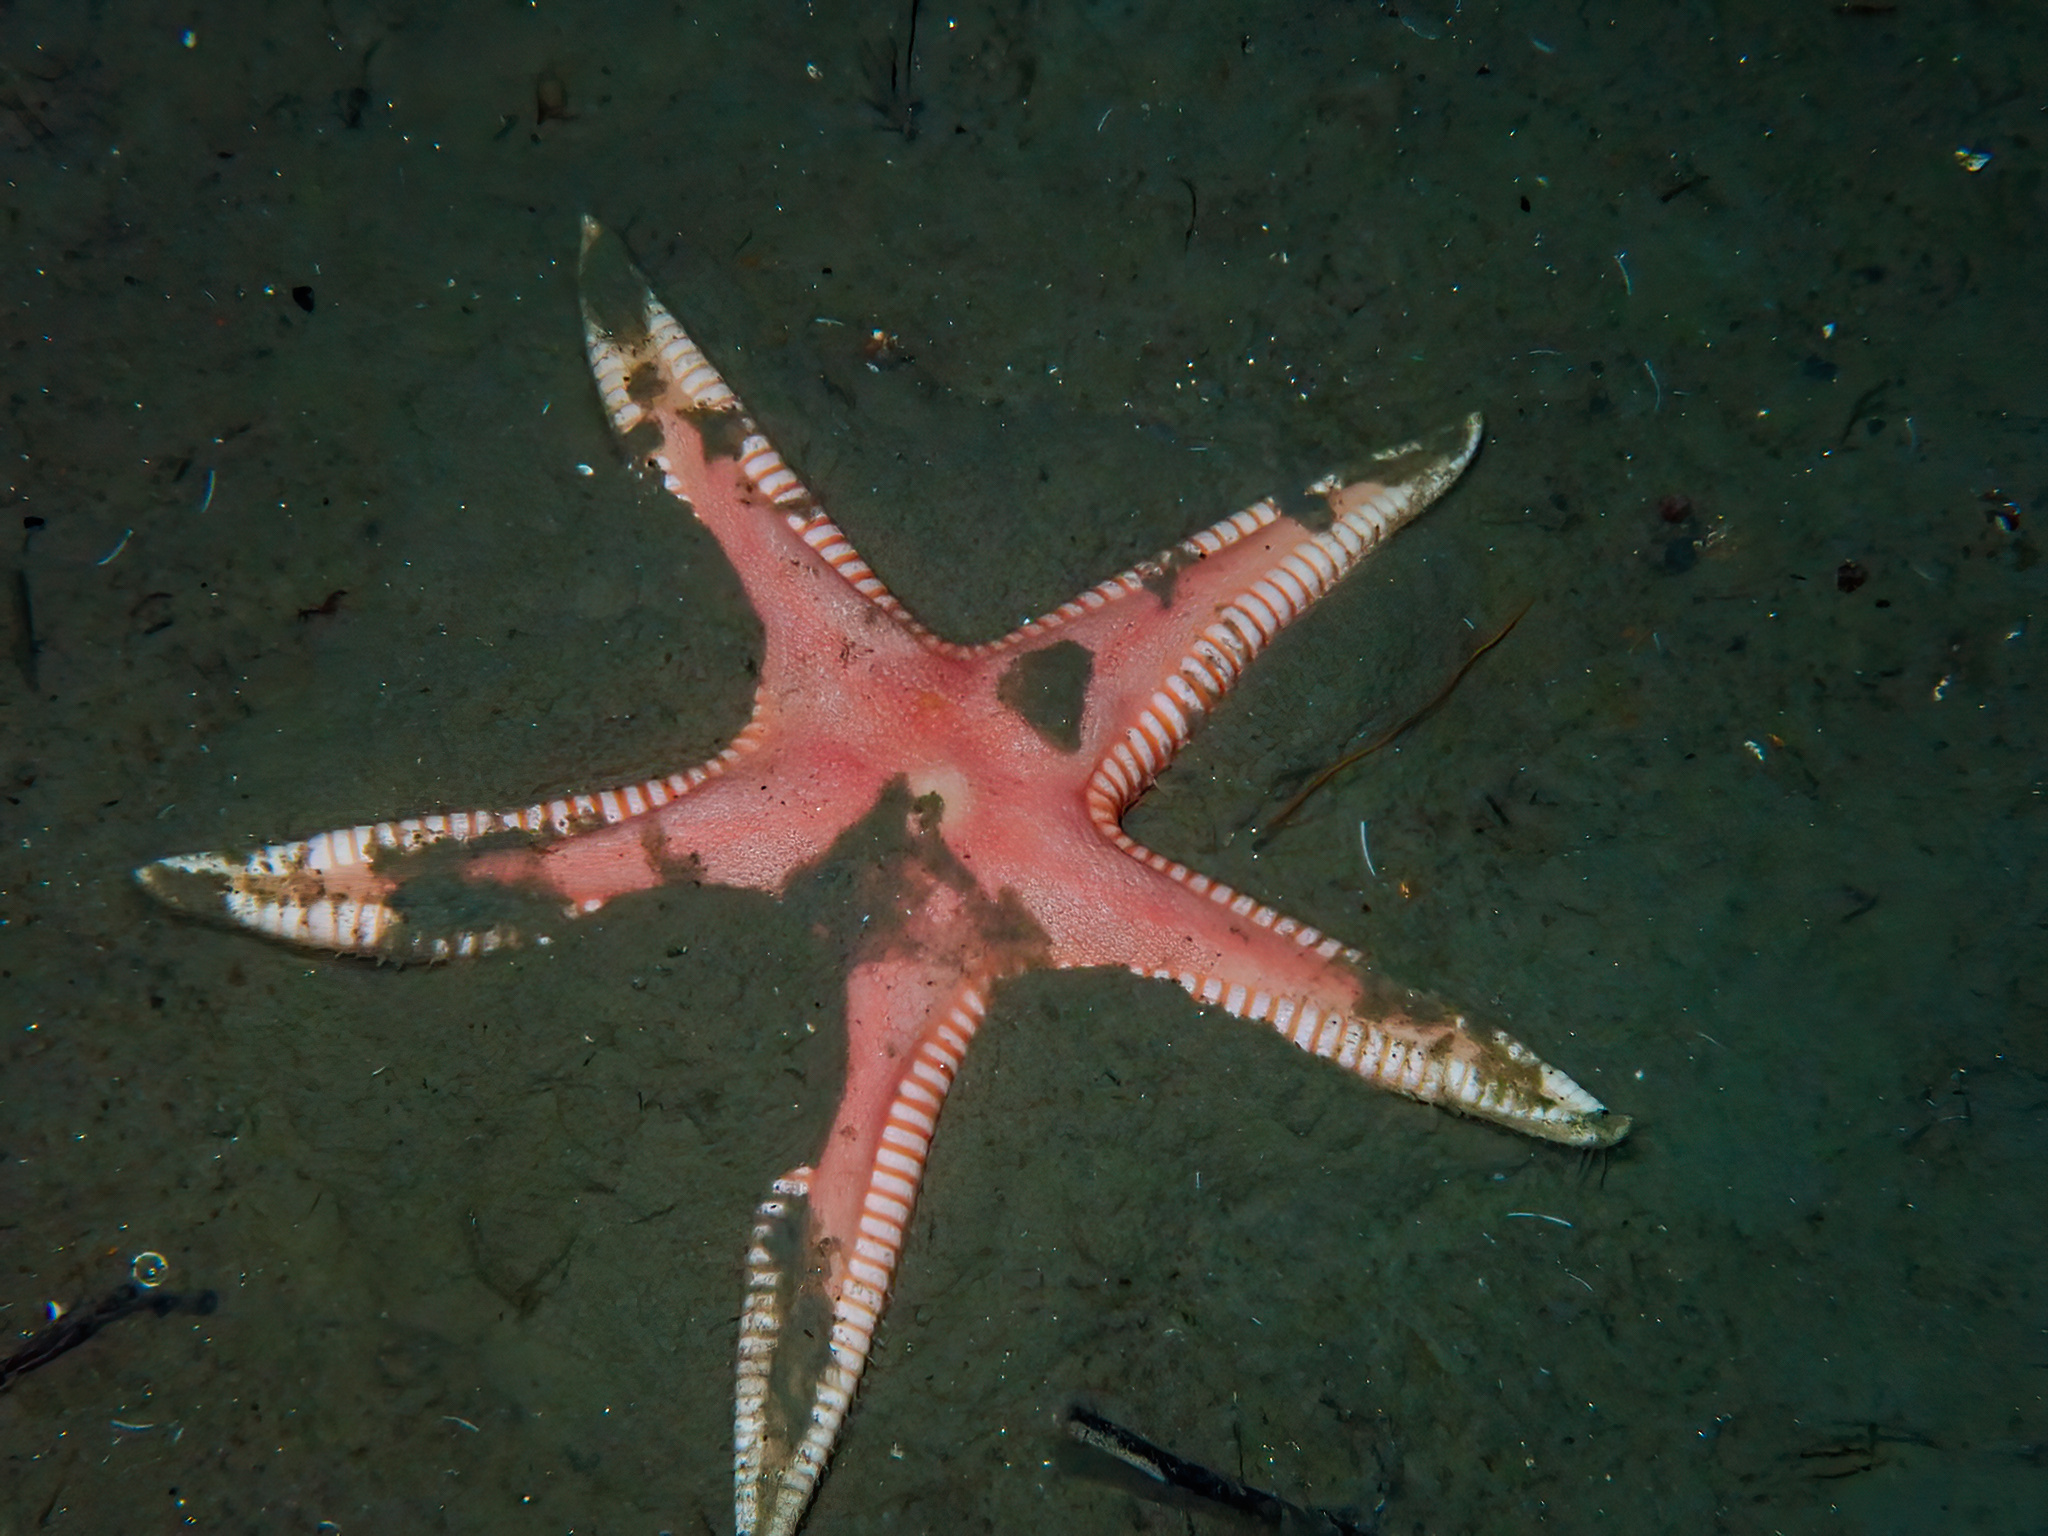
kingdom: Animalia
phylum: Echinodermata
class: Asteroidea
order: Paxillosida
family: Astropectinidae
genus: Psilaster
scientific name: Psilaster andromeda
